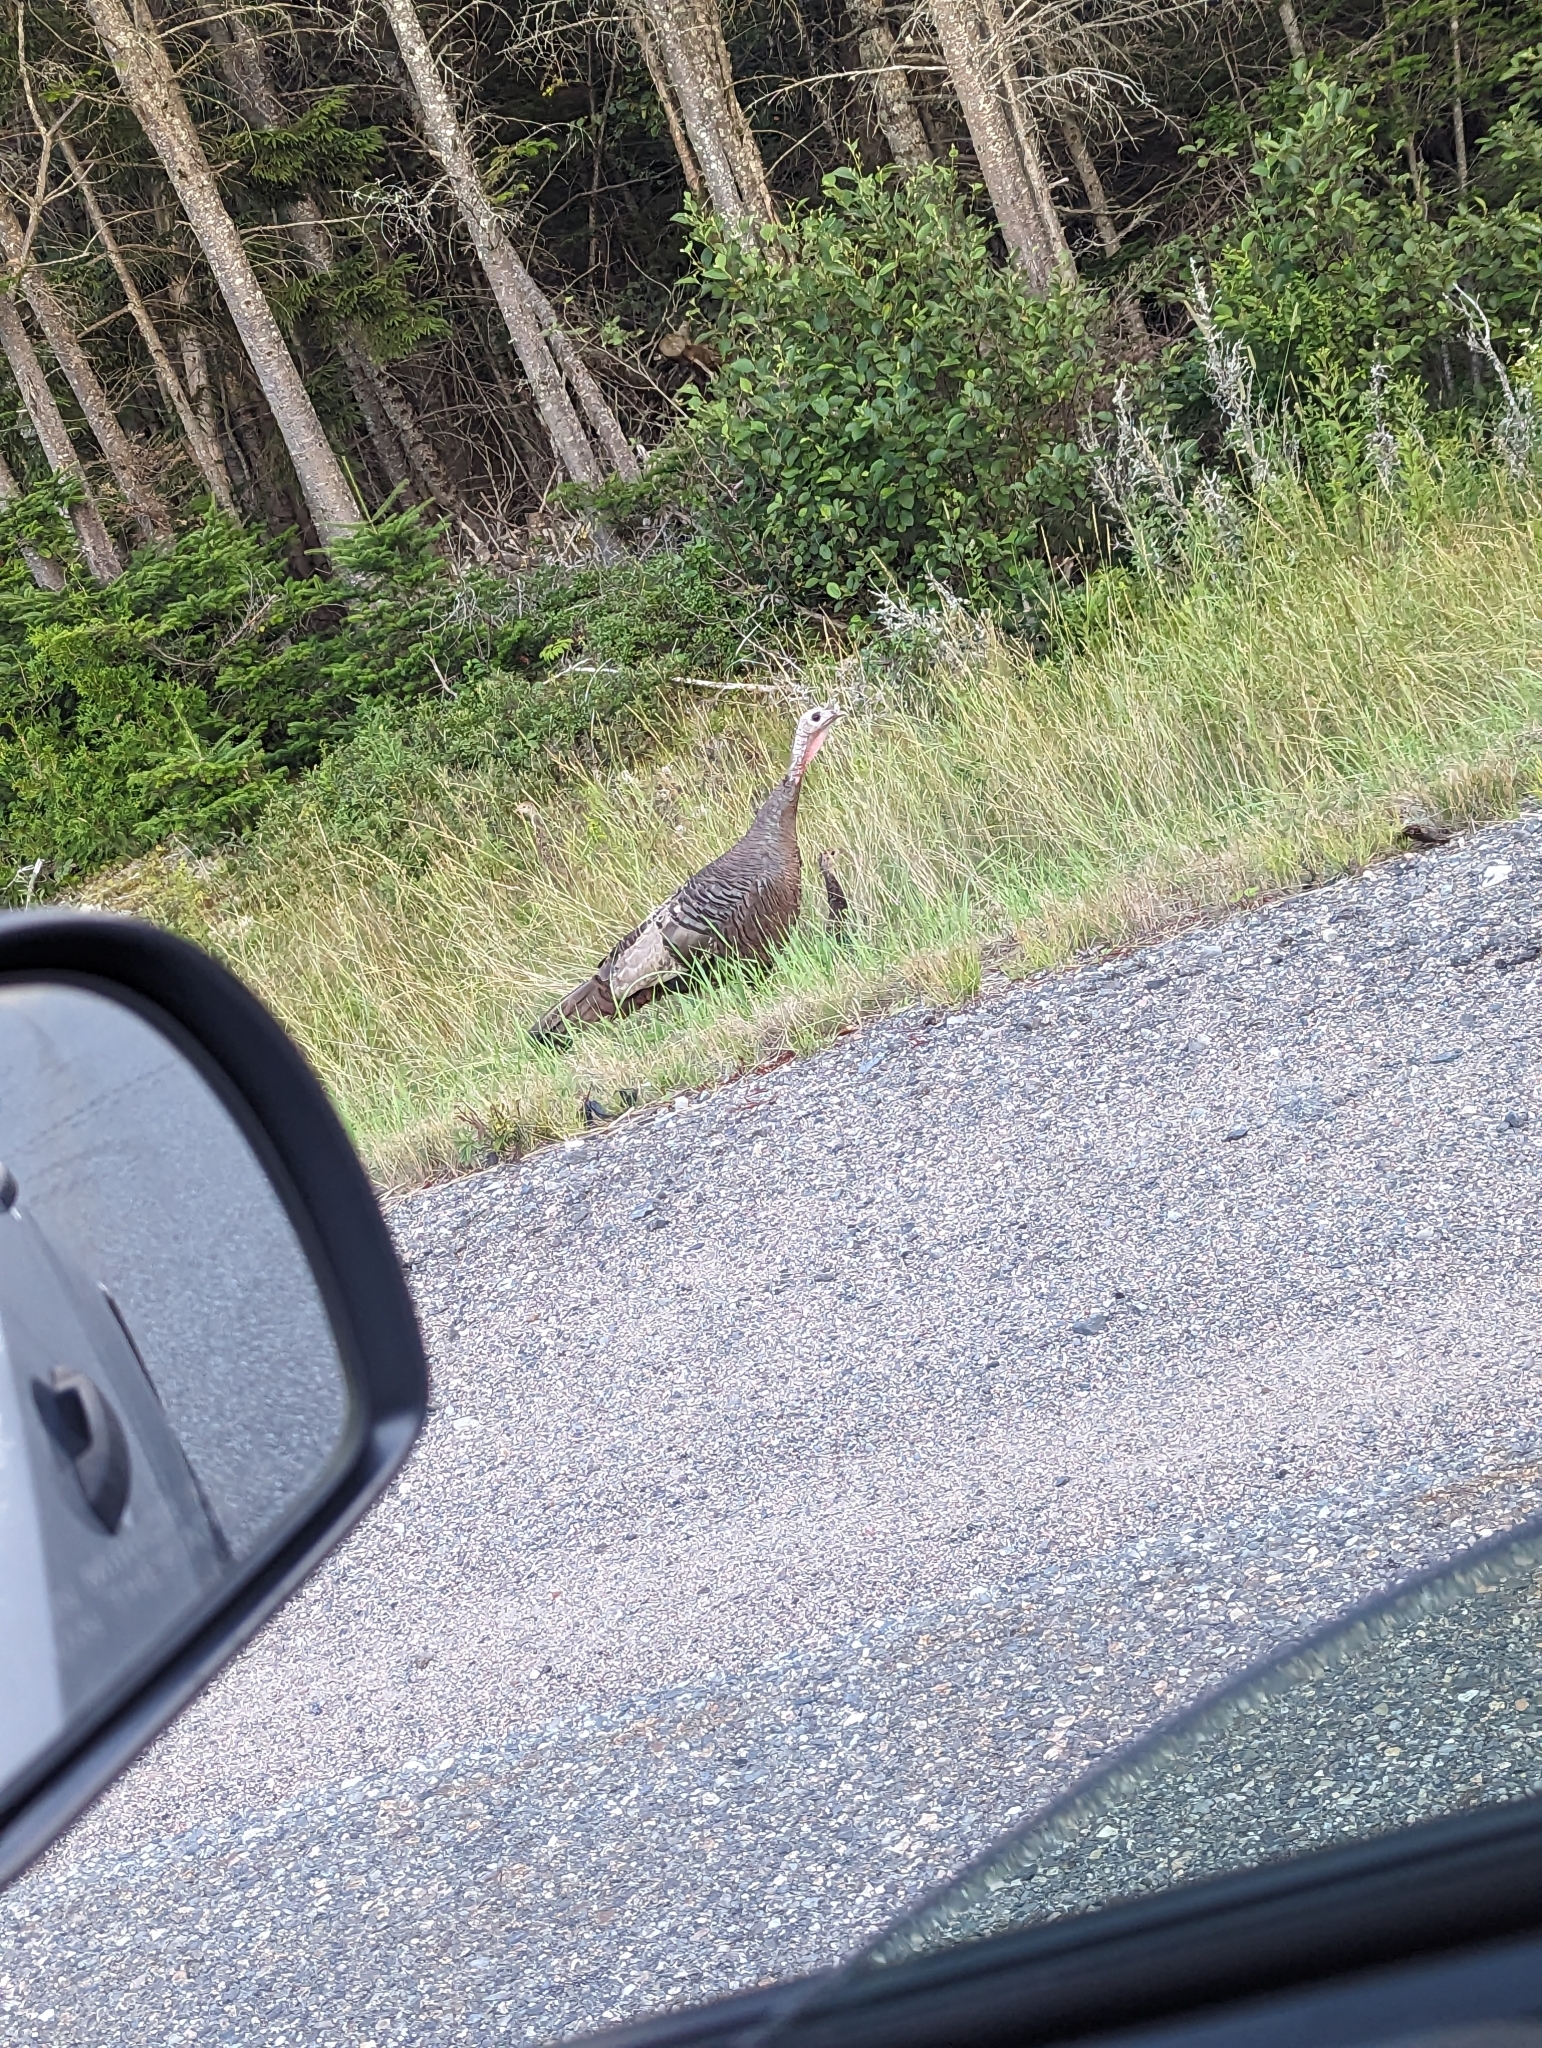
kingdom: Animalia
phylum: Chordata
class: Aves
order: Galliformes
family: Phasianidae
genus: Meleagris
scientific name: Meleagris gallopavo
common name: Wild turkey
